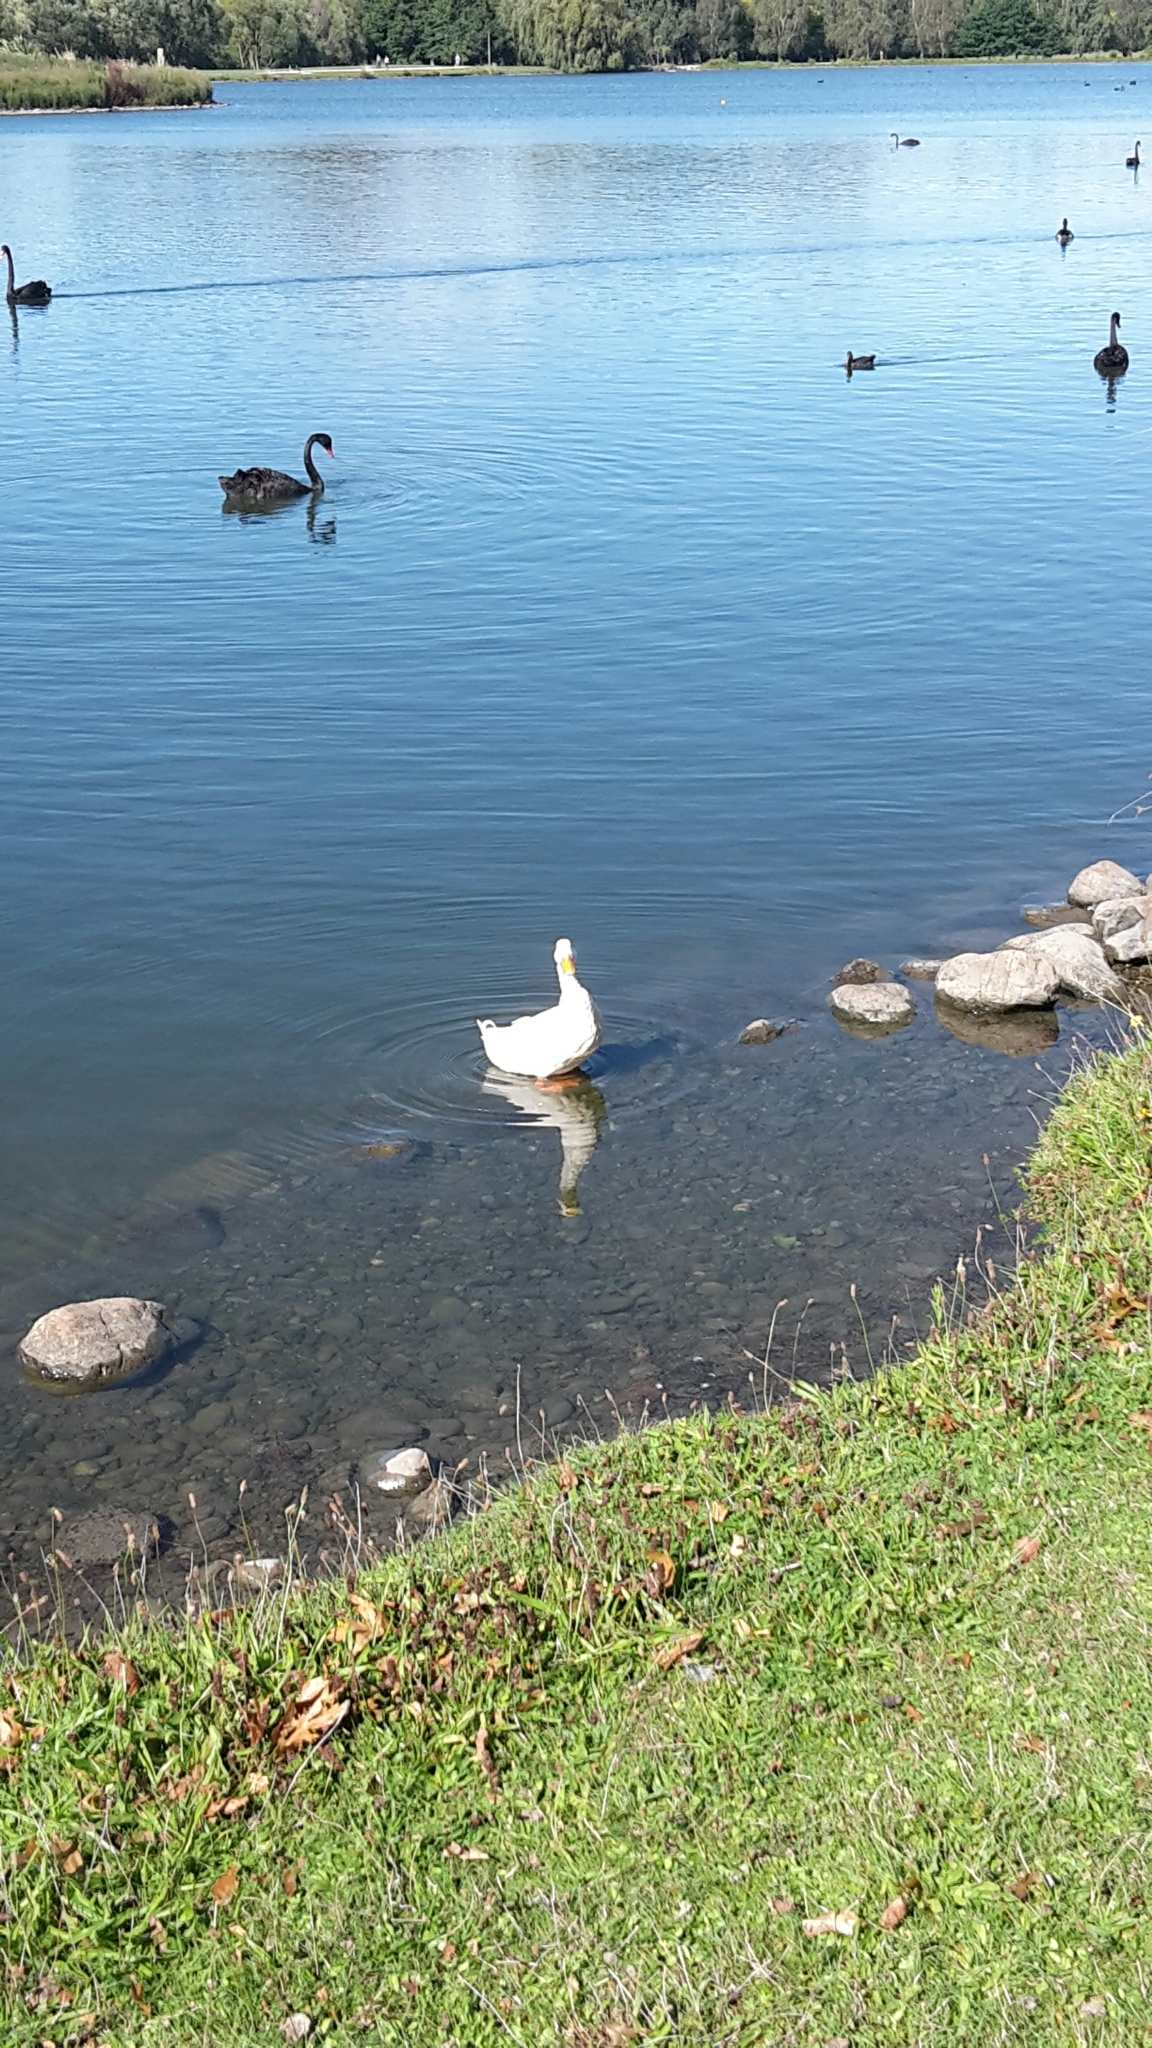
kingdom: Animalia
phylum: Chordata
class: Aves
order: Anseriformes
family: Anatidae
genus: Anas
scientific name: Anas platyrhynchos
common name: Mallard
